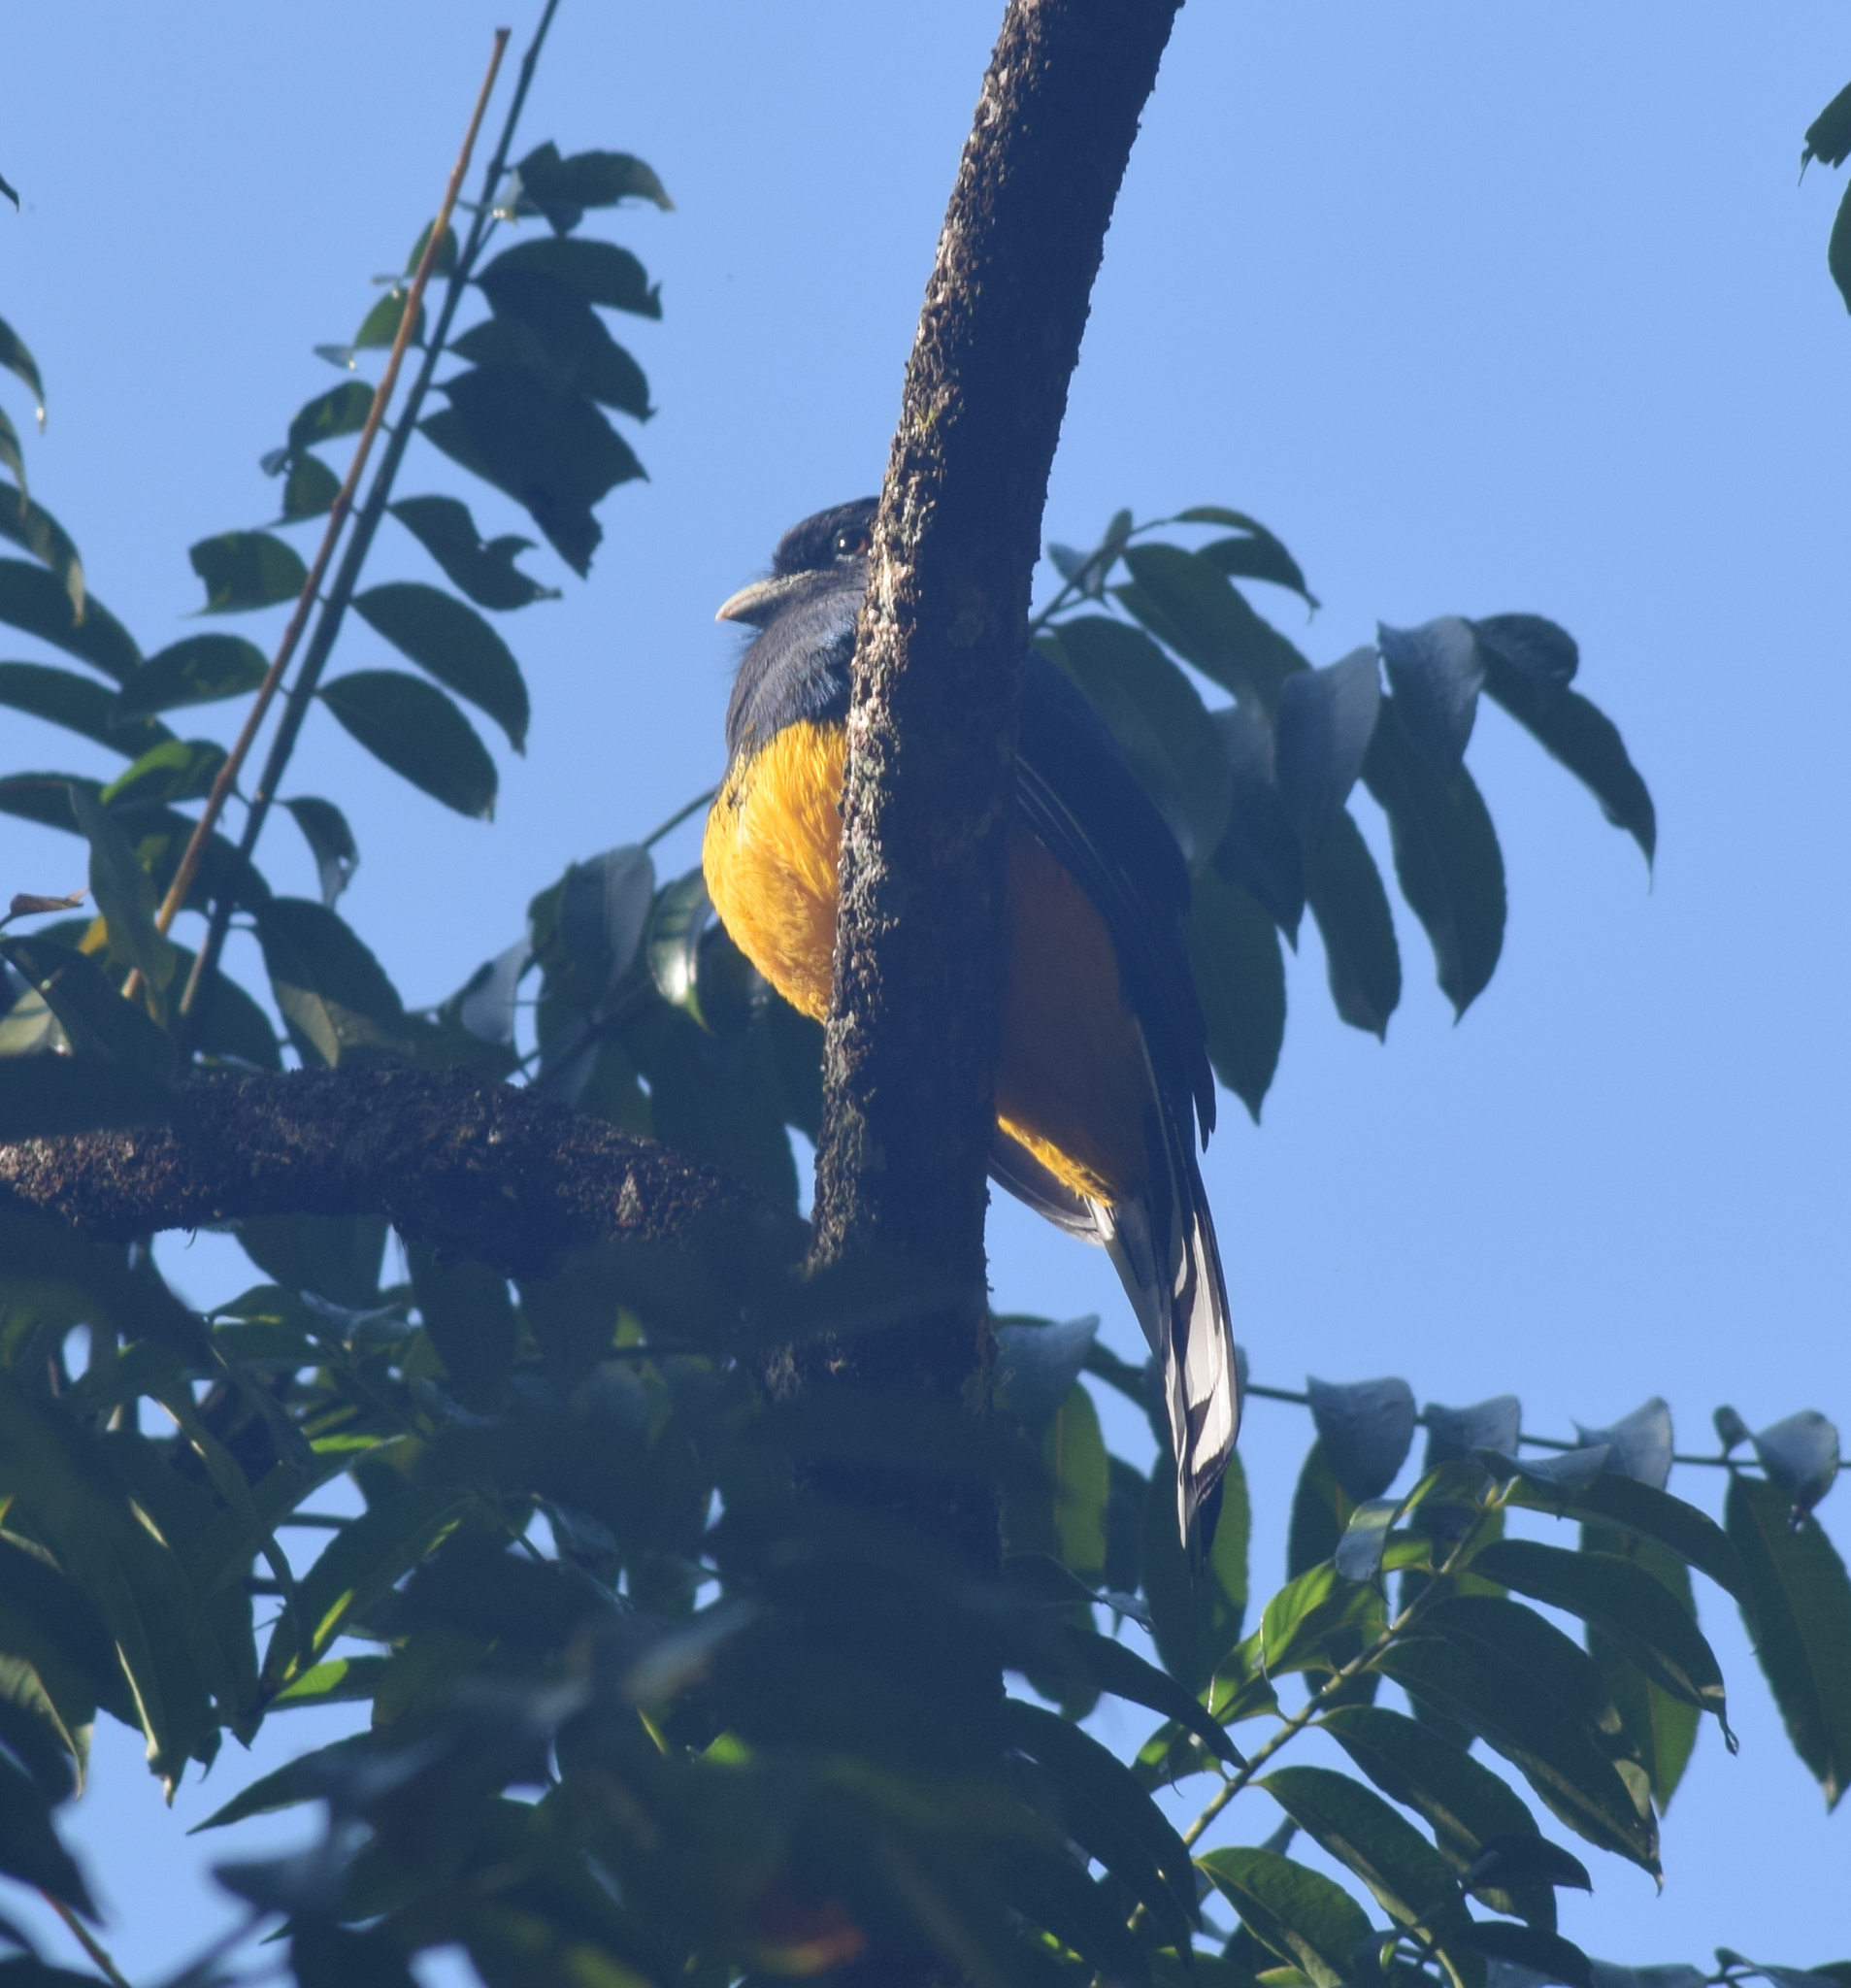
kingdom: Animalia
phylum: Chordata
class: Aves
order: Trogoniformes
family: Trogonidae
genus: Trogon
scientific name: Trogon viridis
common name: Green-backed trogon
